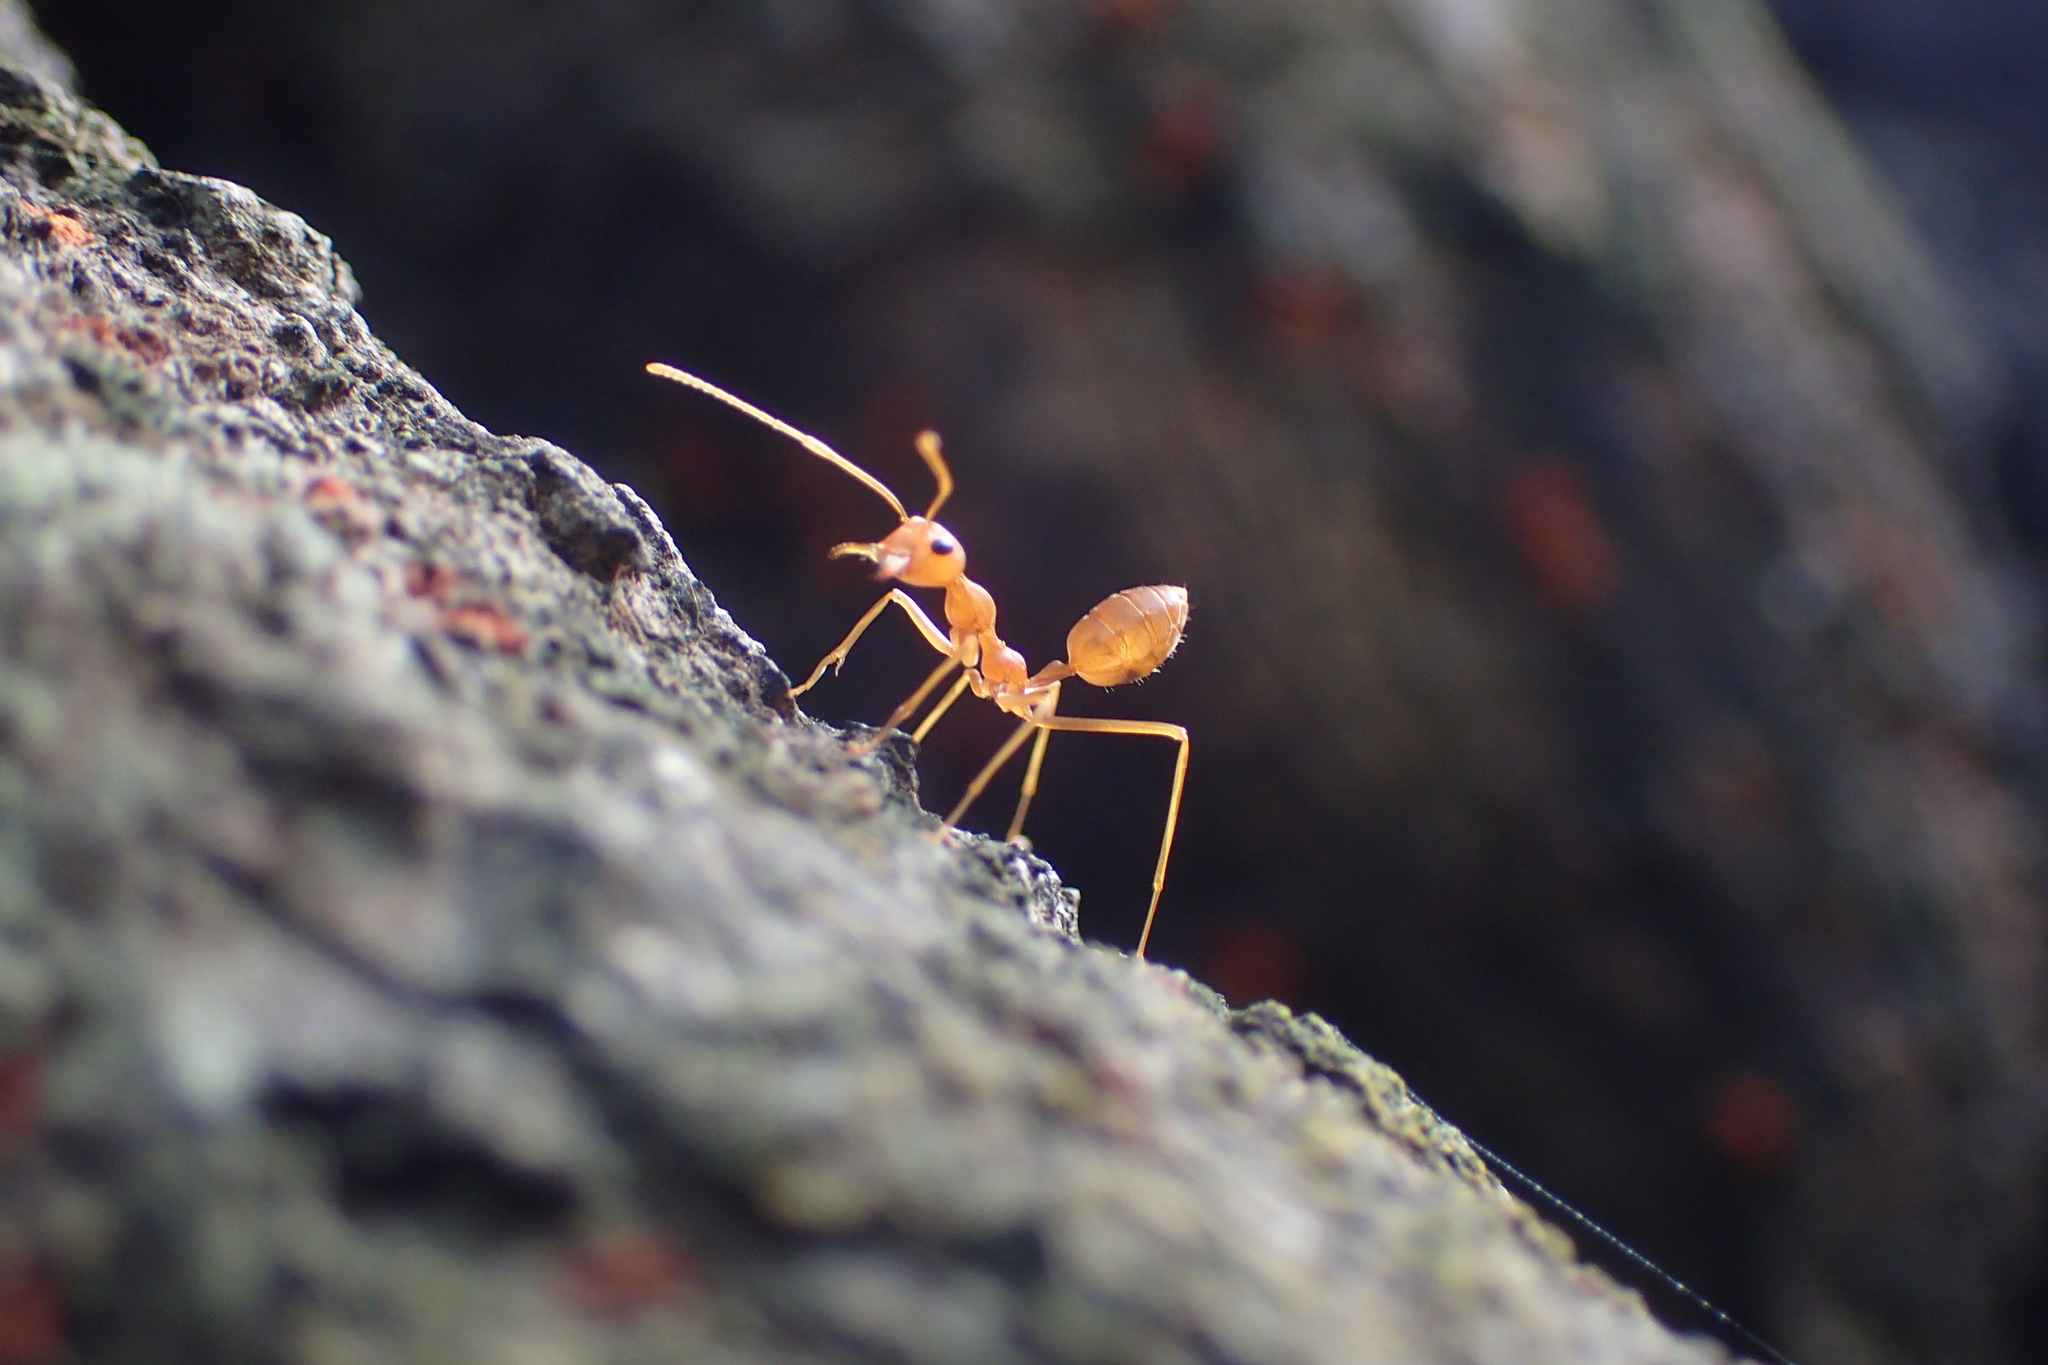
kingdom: Animalia
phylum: Arthropoda
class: Insecta
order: Hymenoptera
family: Formicidae
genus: Oecophylla
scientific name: Oecophylla smaragdina
